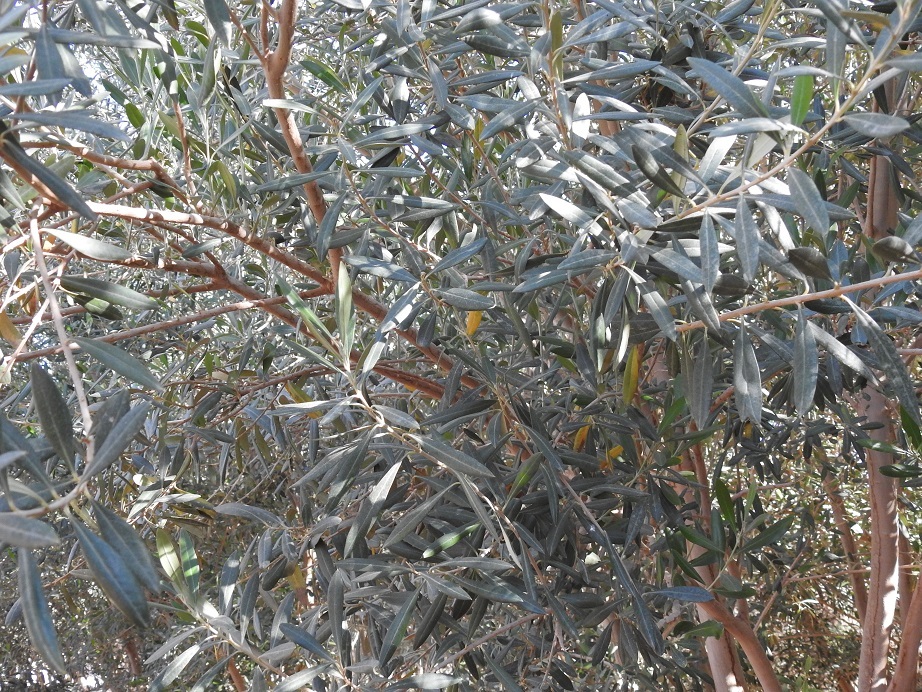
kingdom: Plantae
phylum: Tracheophyta
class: Magnoliopsida
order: Lamiales
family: Oleaceae
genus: Olea
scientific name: Olea europaea
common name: Olive
